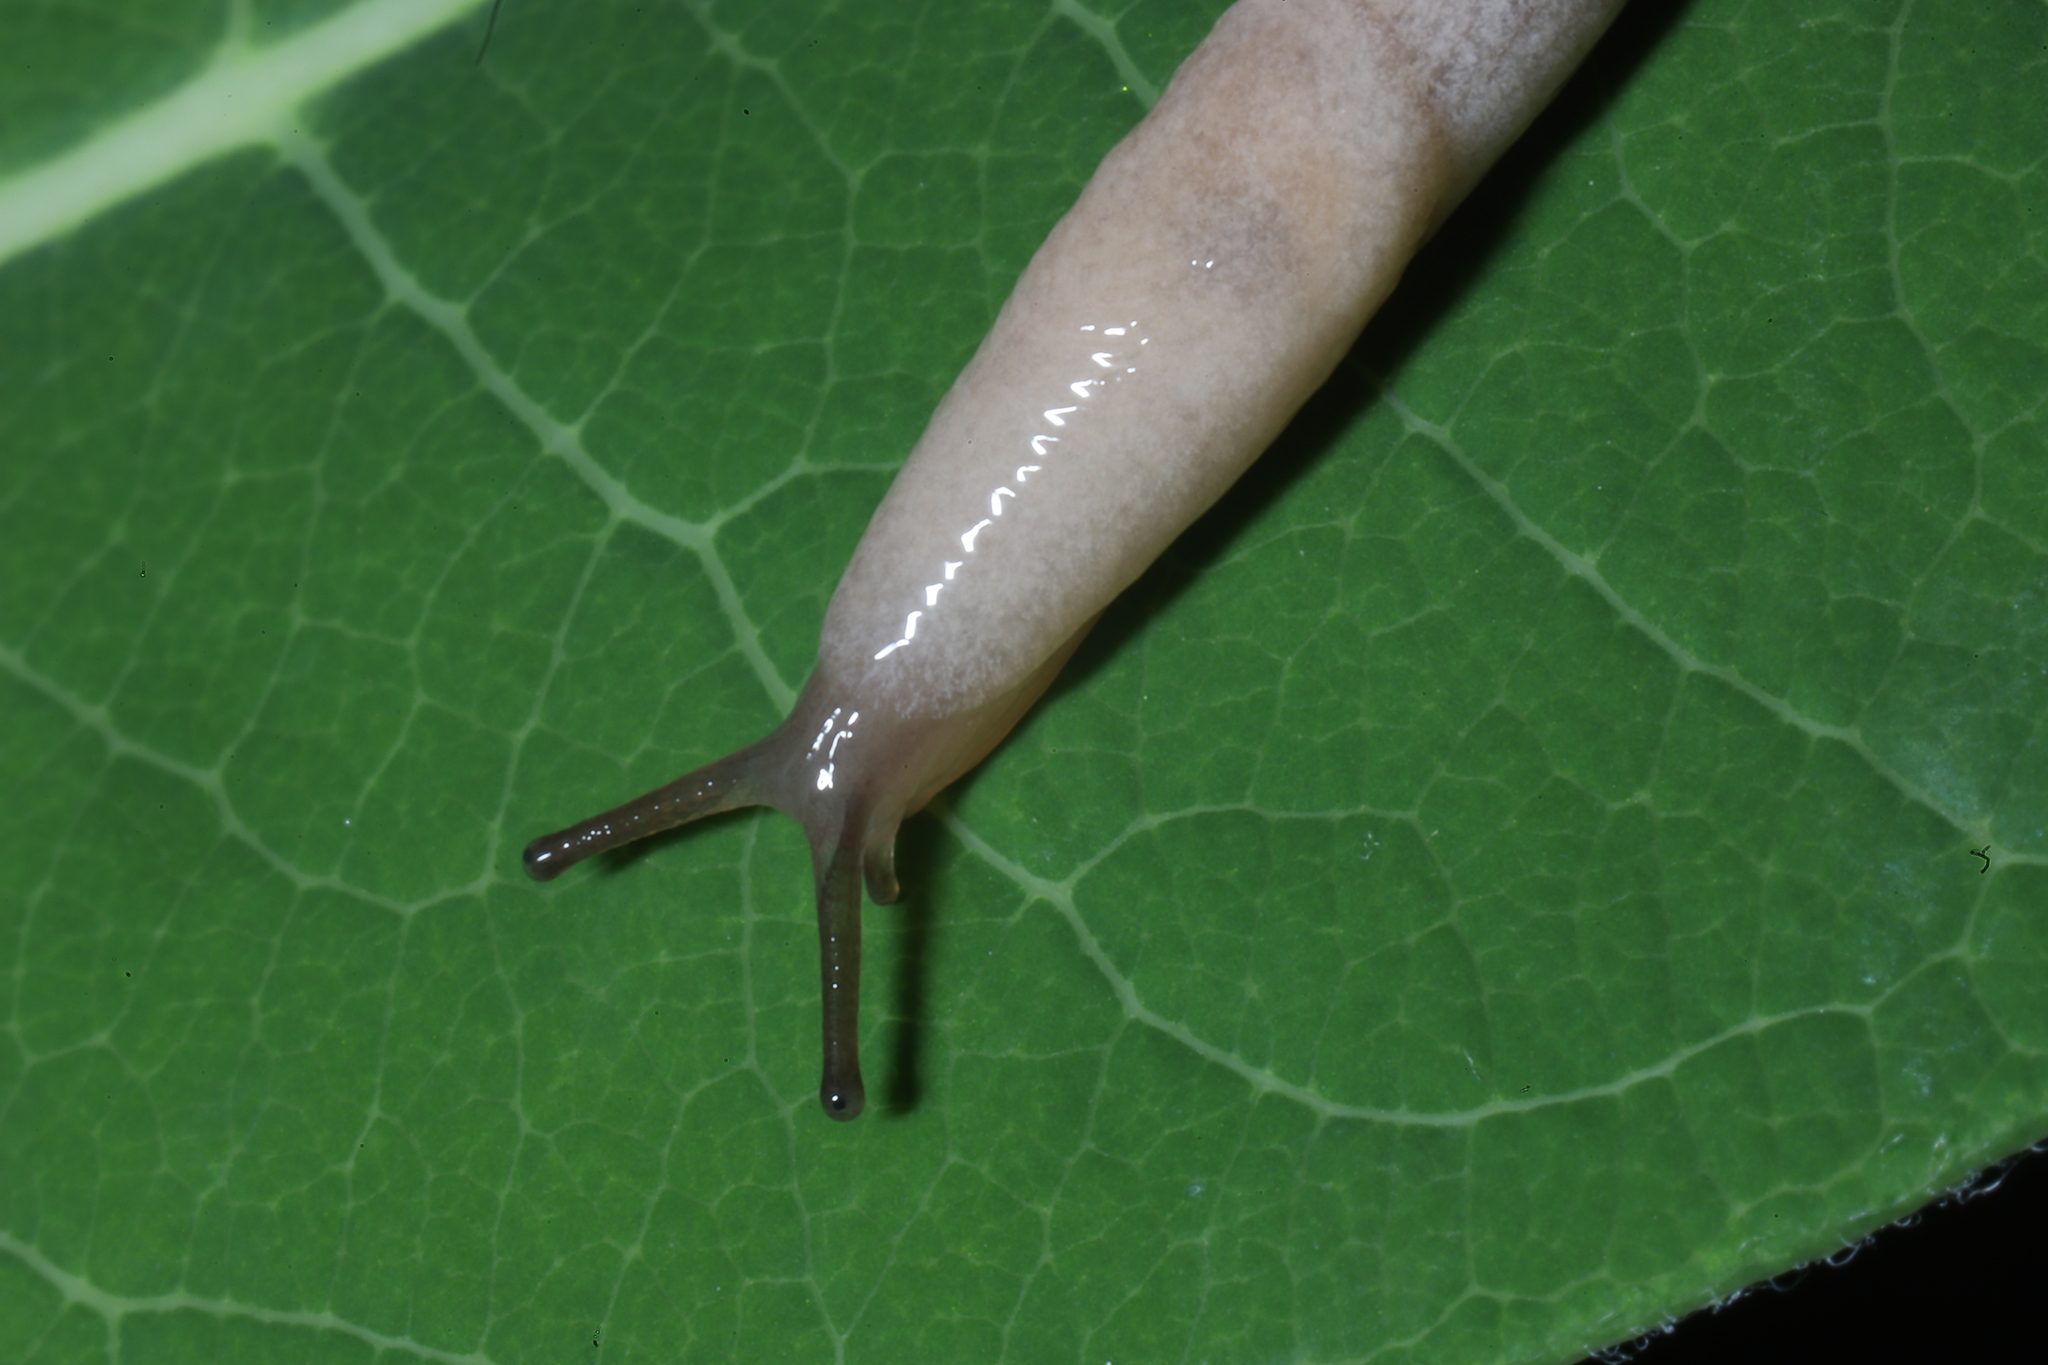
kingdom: Animalia
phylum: Mollusca
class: Gastropoda
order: Stylommatophora
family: Agriolimacidae
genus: Deroceras
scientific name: Deroceras reticulatum
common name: Gray field slug
